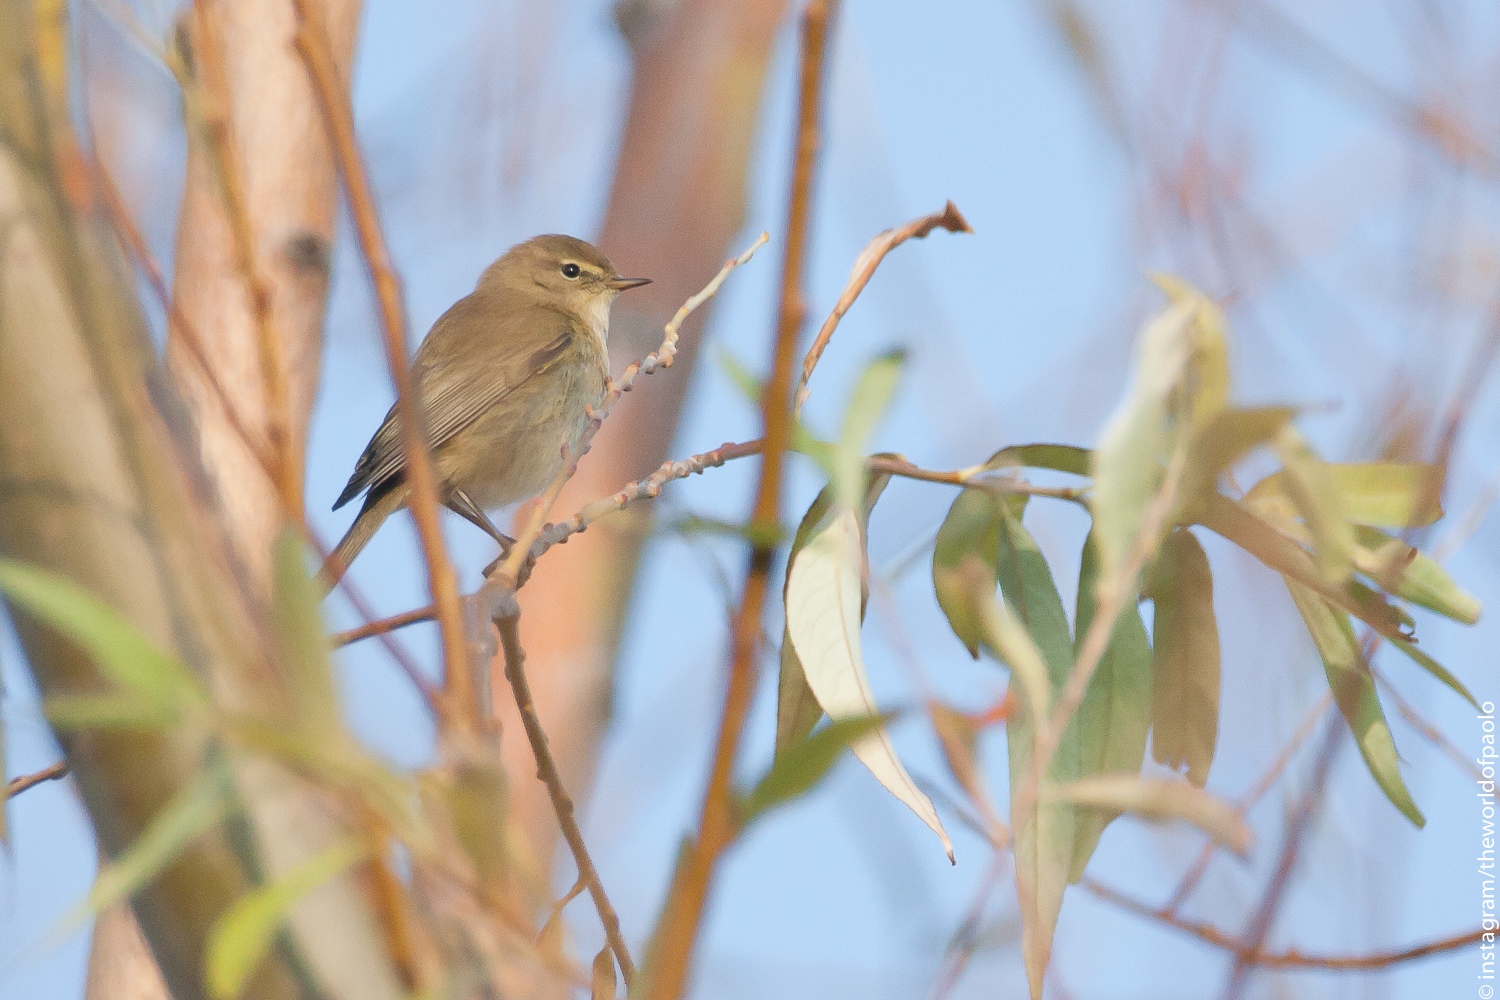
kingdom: Animalia
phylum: Chordata
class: Aves
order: Passeriformes
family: Phylloscopidae
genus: Phylloscopus
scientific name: Phylloscopus collybita
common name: Common chiffchaff
